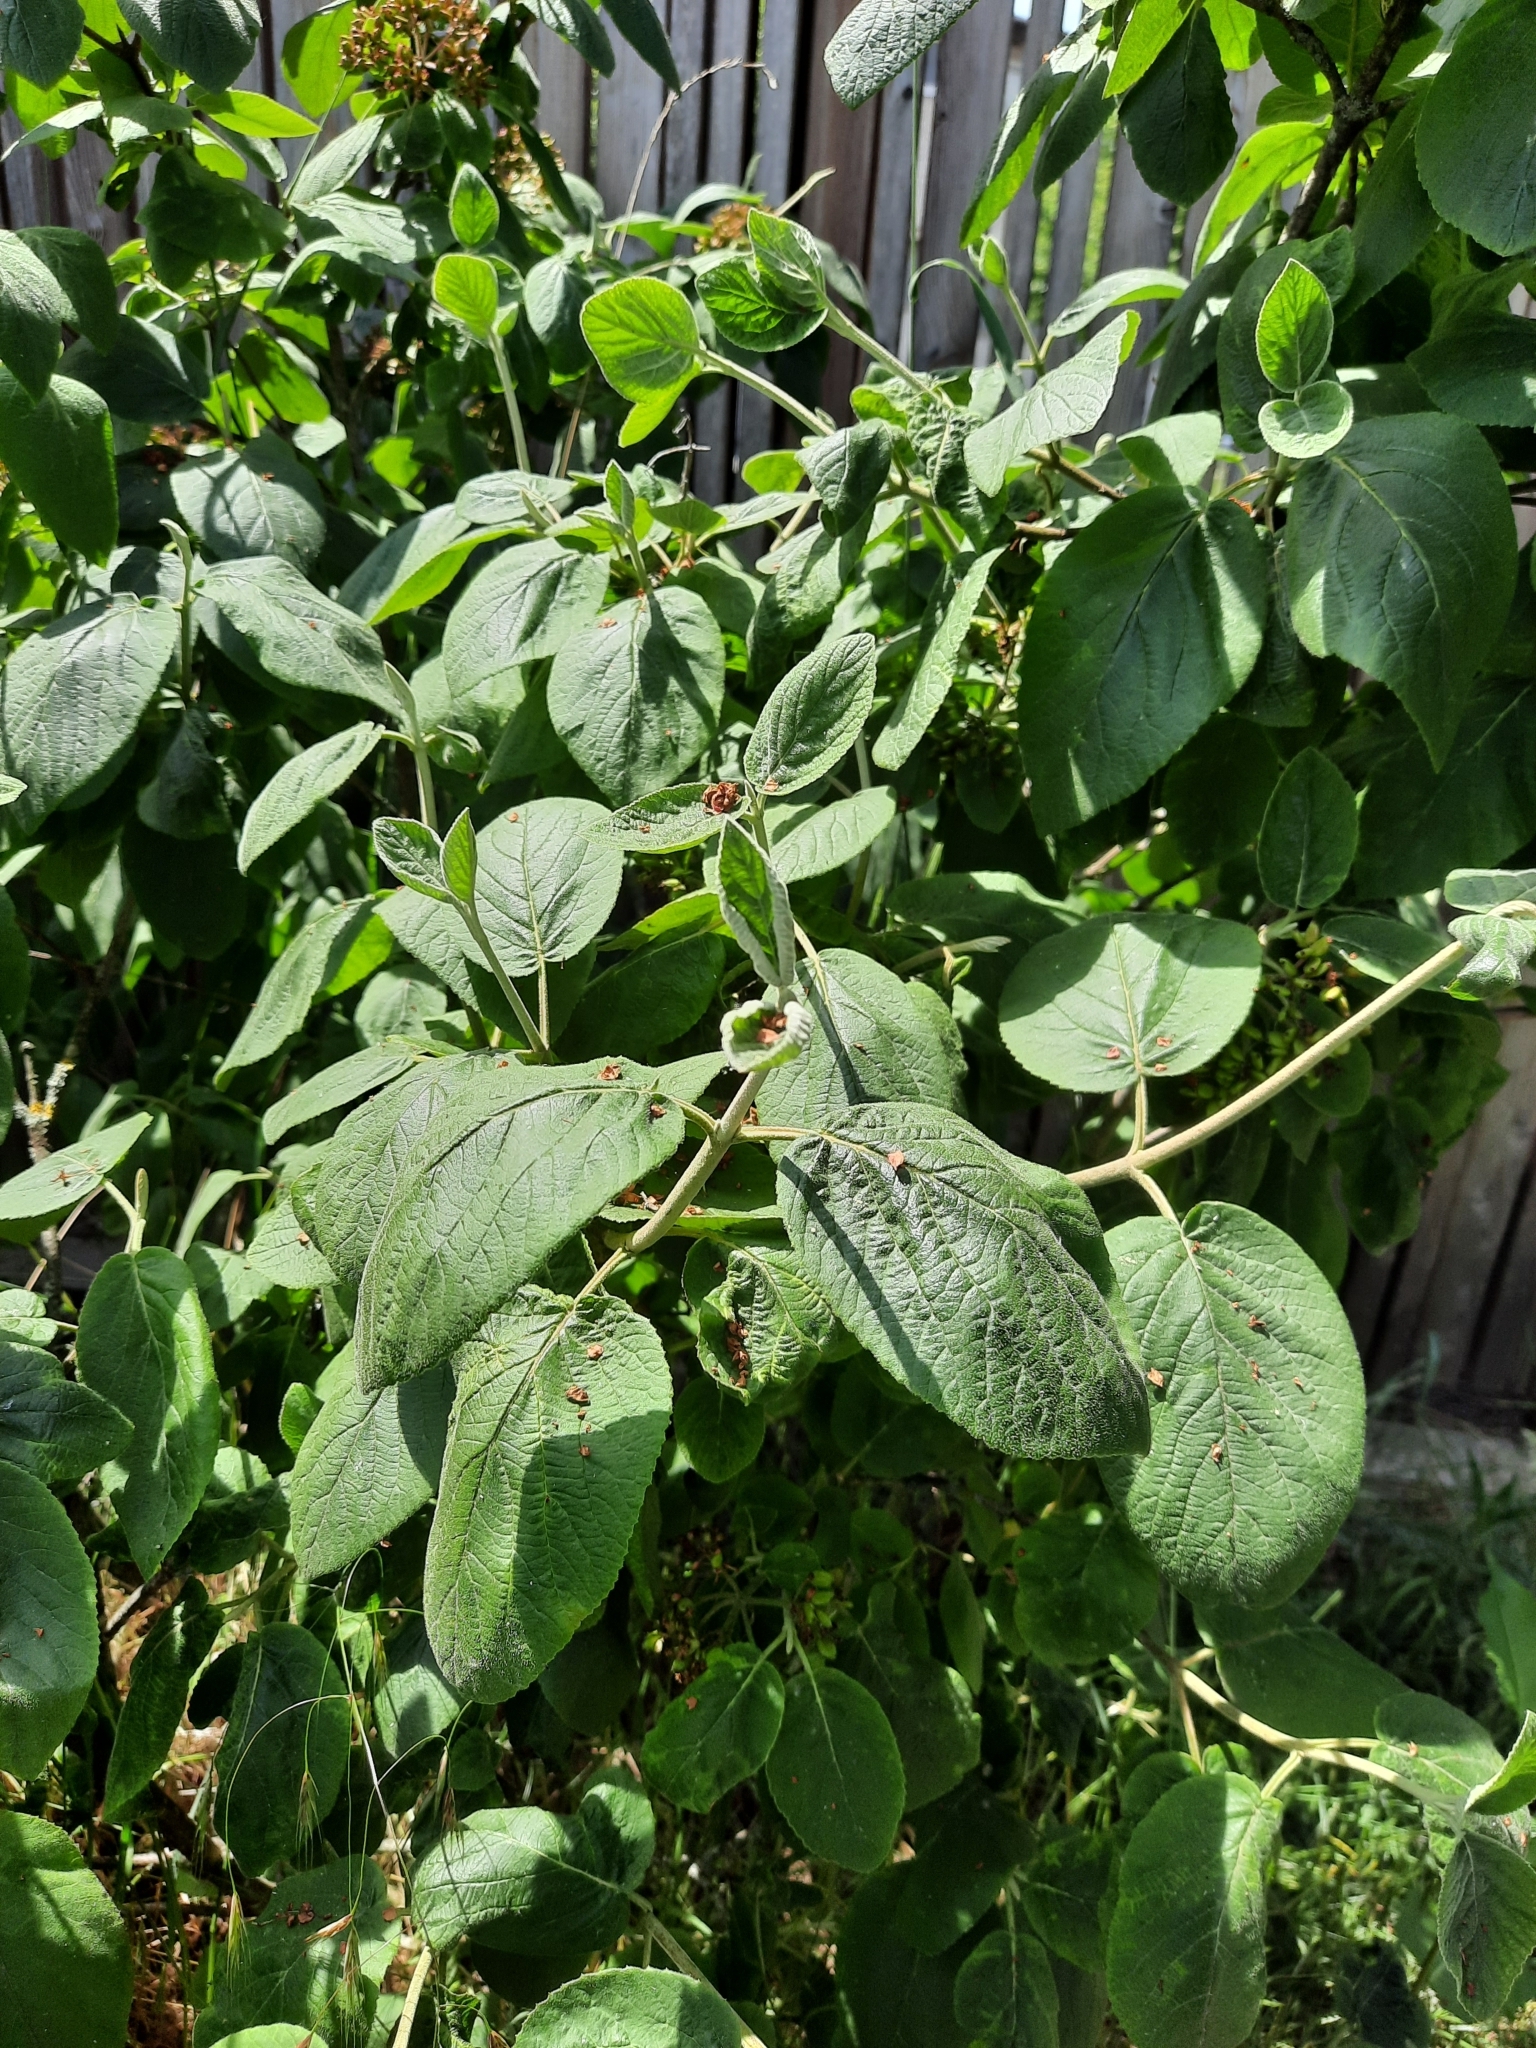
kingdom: Plantae
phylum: Tracheophyta
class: Magnoliopsida
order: Dipsacales
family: Viburnaceae
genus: Viburnum
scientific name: Viburnum lantana
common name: Wayfaring tree
